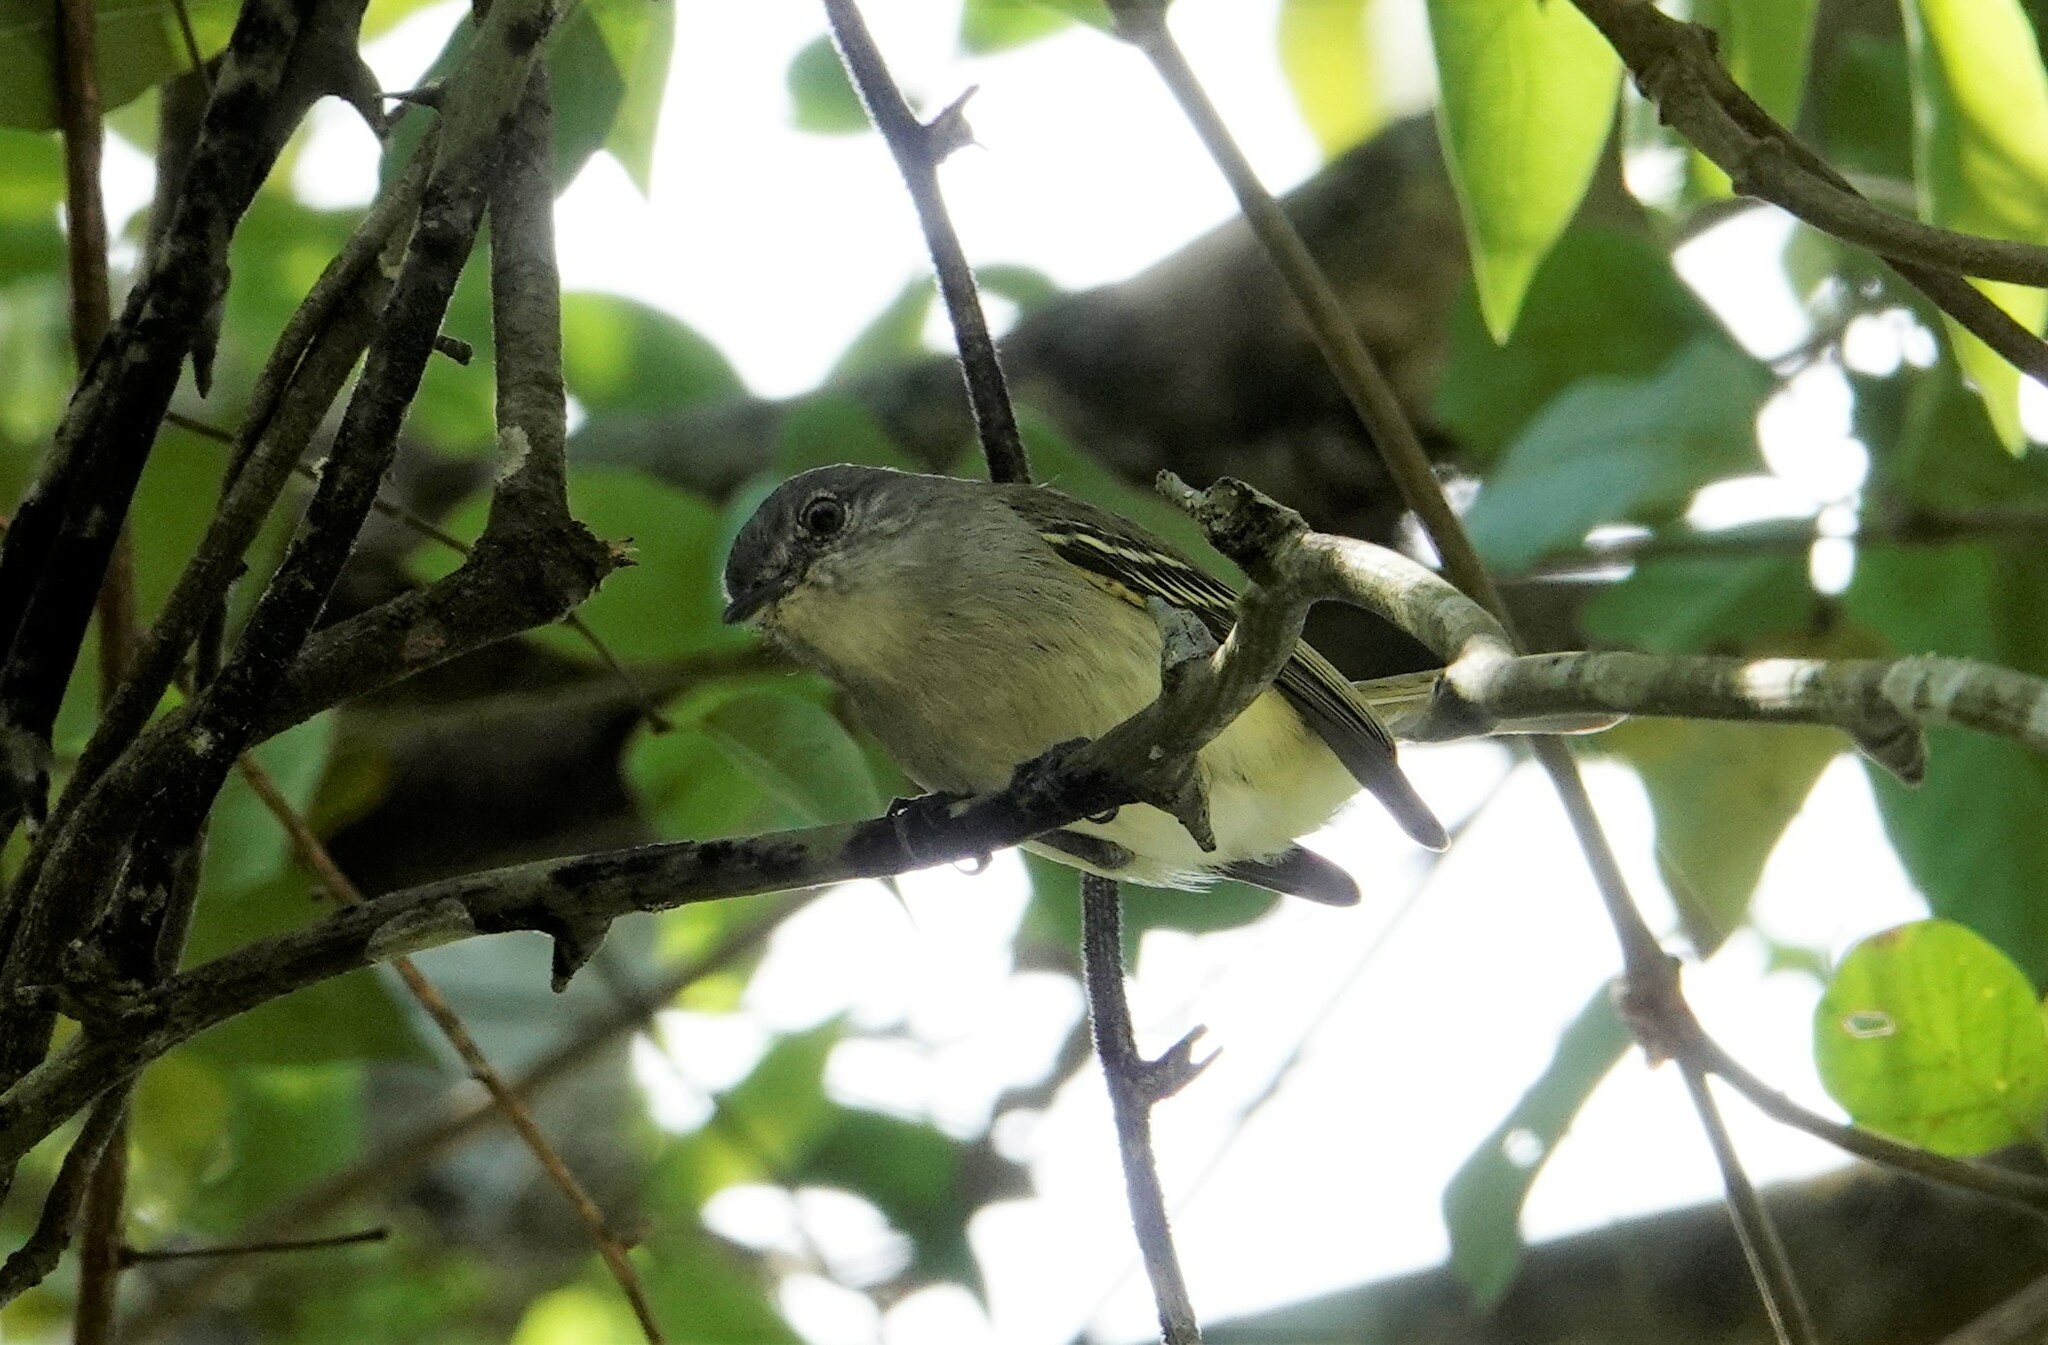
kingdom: Animalia
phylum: Chordata
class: Aves
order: Passeriformes
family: Tyrannidae
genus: Myiopagis
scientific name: Myiopagis caniceps
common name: Gray elaenia
